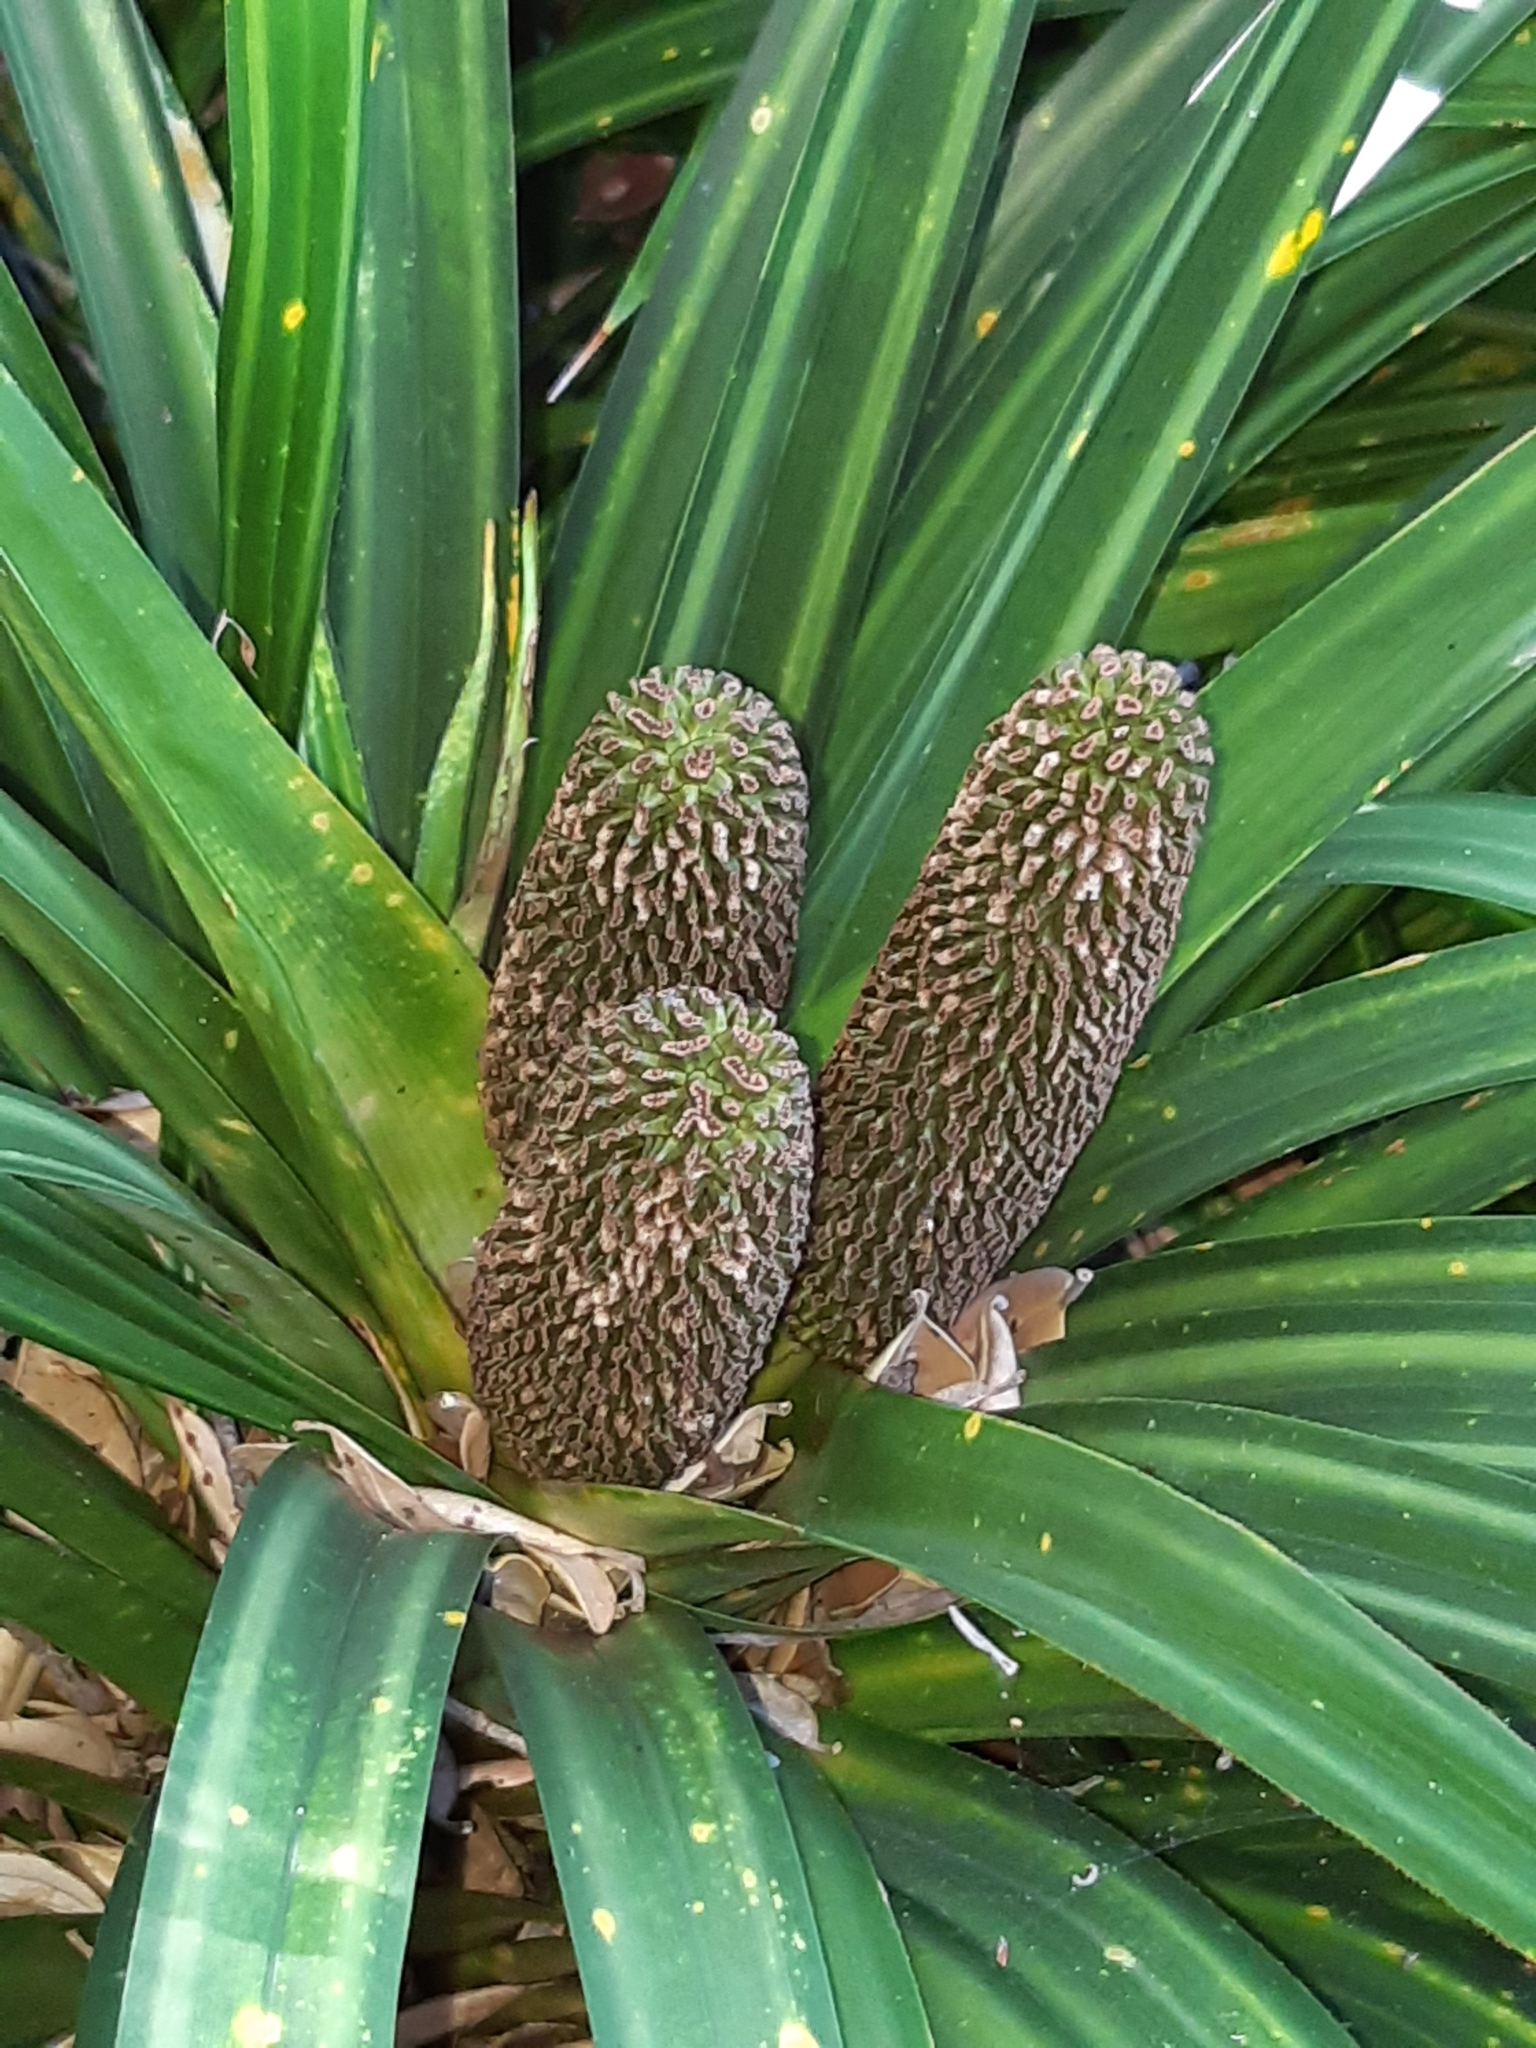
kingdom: Plantae
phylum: Tracheophyta
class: Liliopsida
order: Pandanales
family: Pandanaceae
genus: Freycinetia
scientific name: Freycinetia banksii
